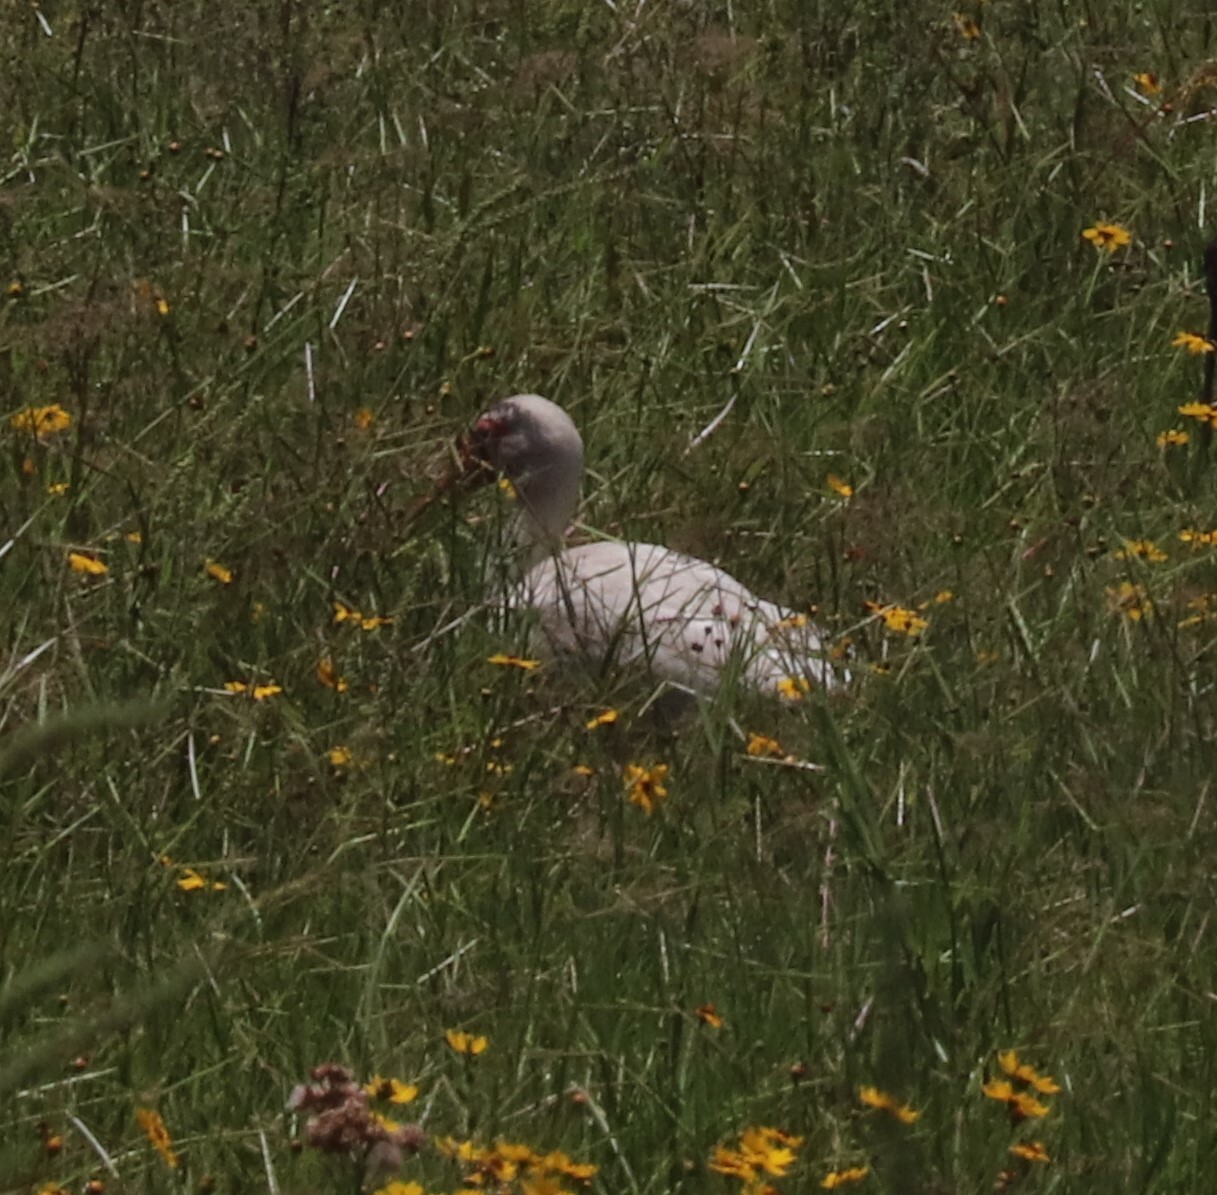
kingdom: Animalia
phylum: Chordata
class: Aves
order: Pelecaniformes
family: Threskiornithidae
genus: Eudocimus
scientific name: Eudocimus albus
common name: White ibis
